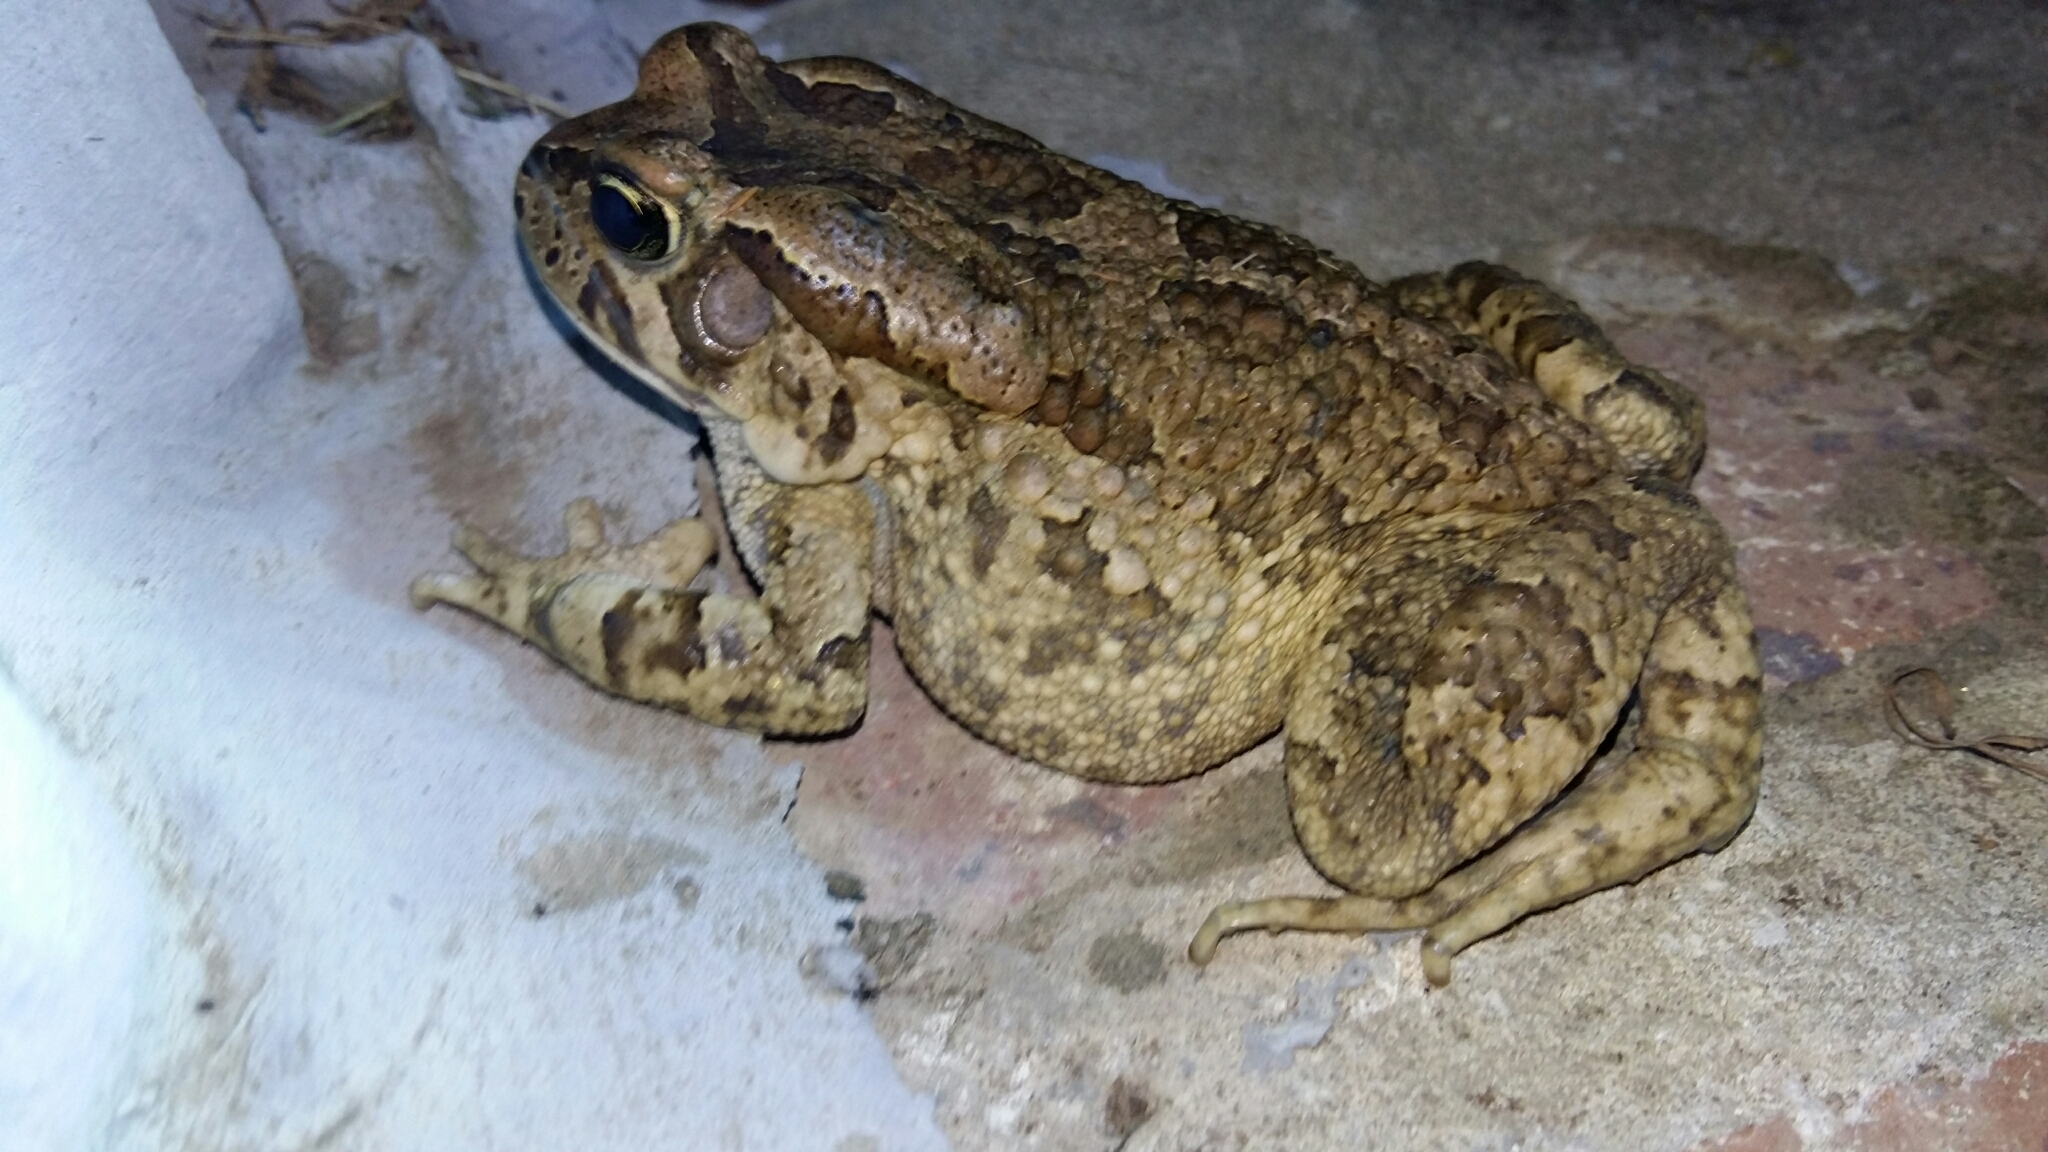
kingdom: Animalia
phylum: Chordata
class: Amphibia
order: Anura
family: Bufonidae
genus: Sclerophrys
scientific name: Sclerophrys capensis
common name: Ranger’s toad
